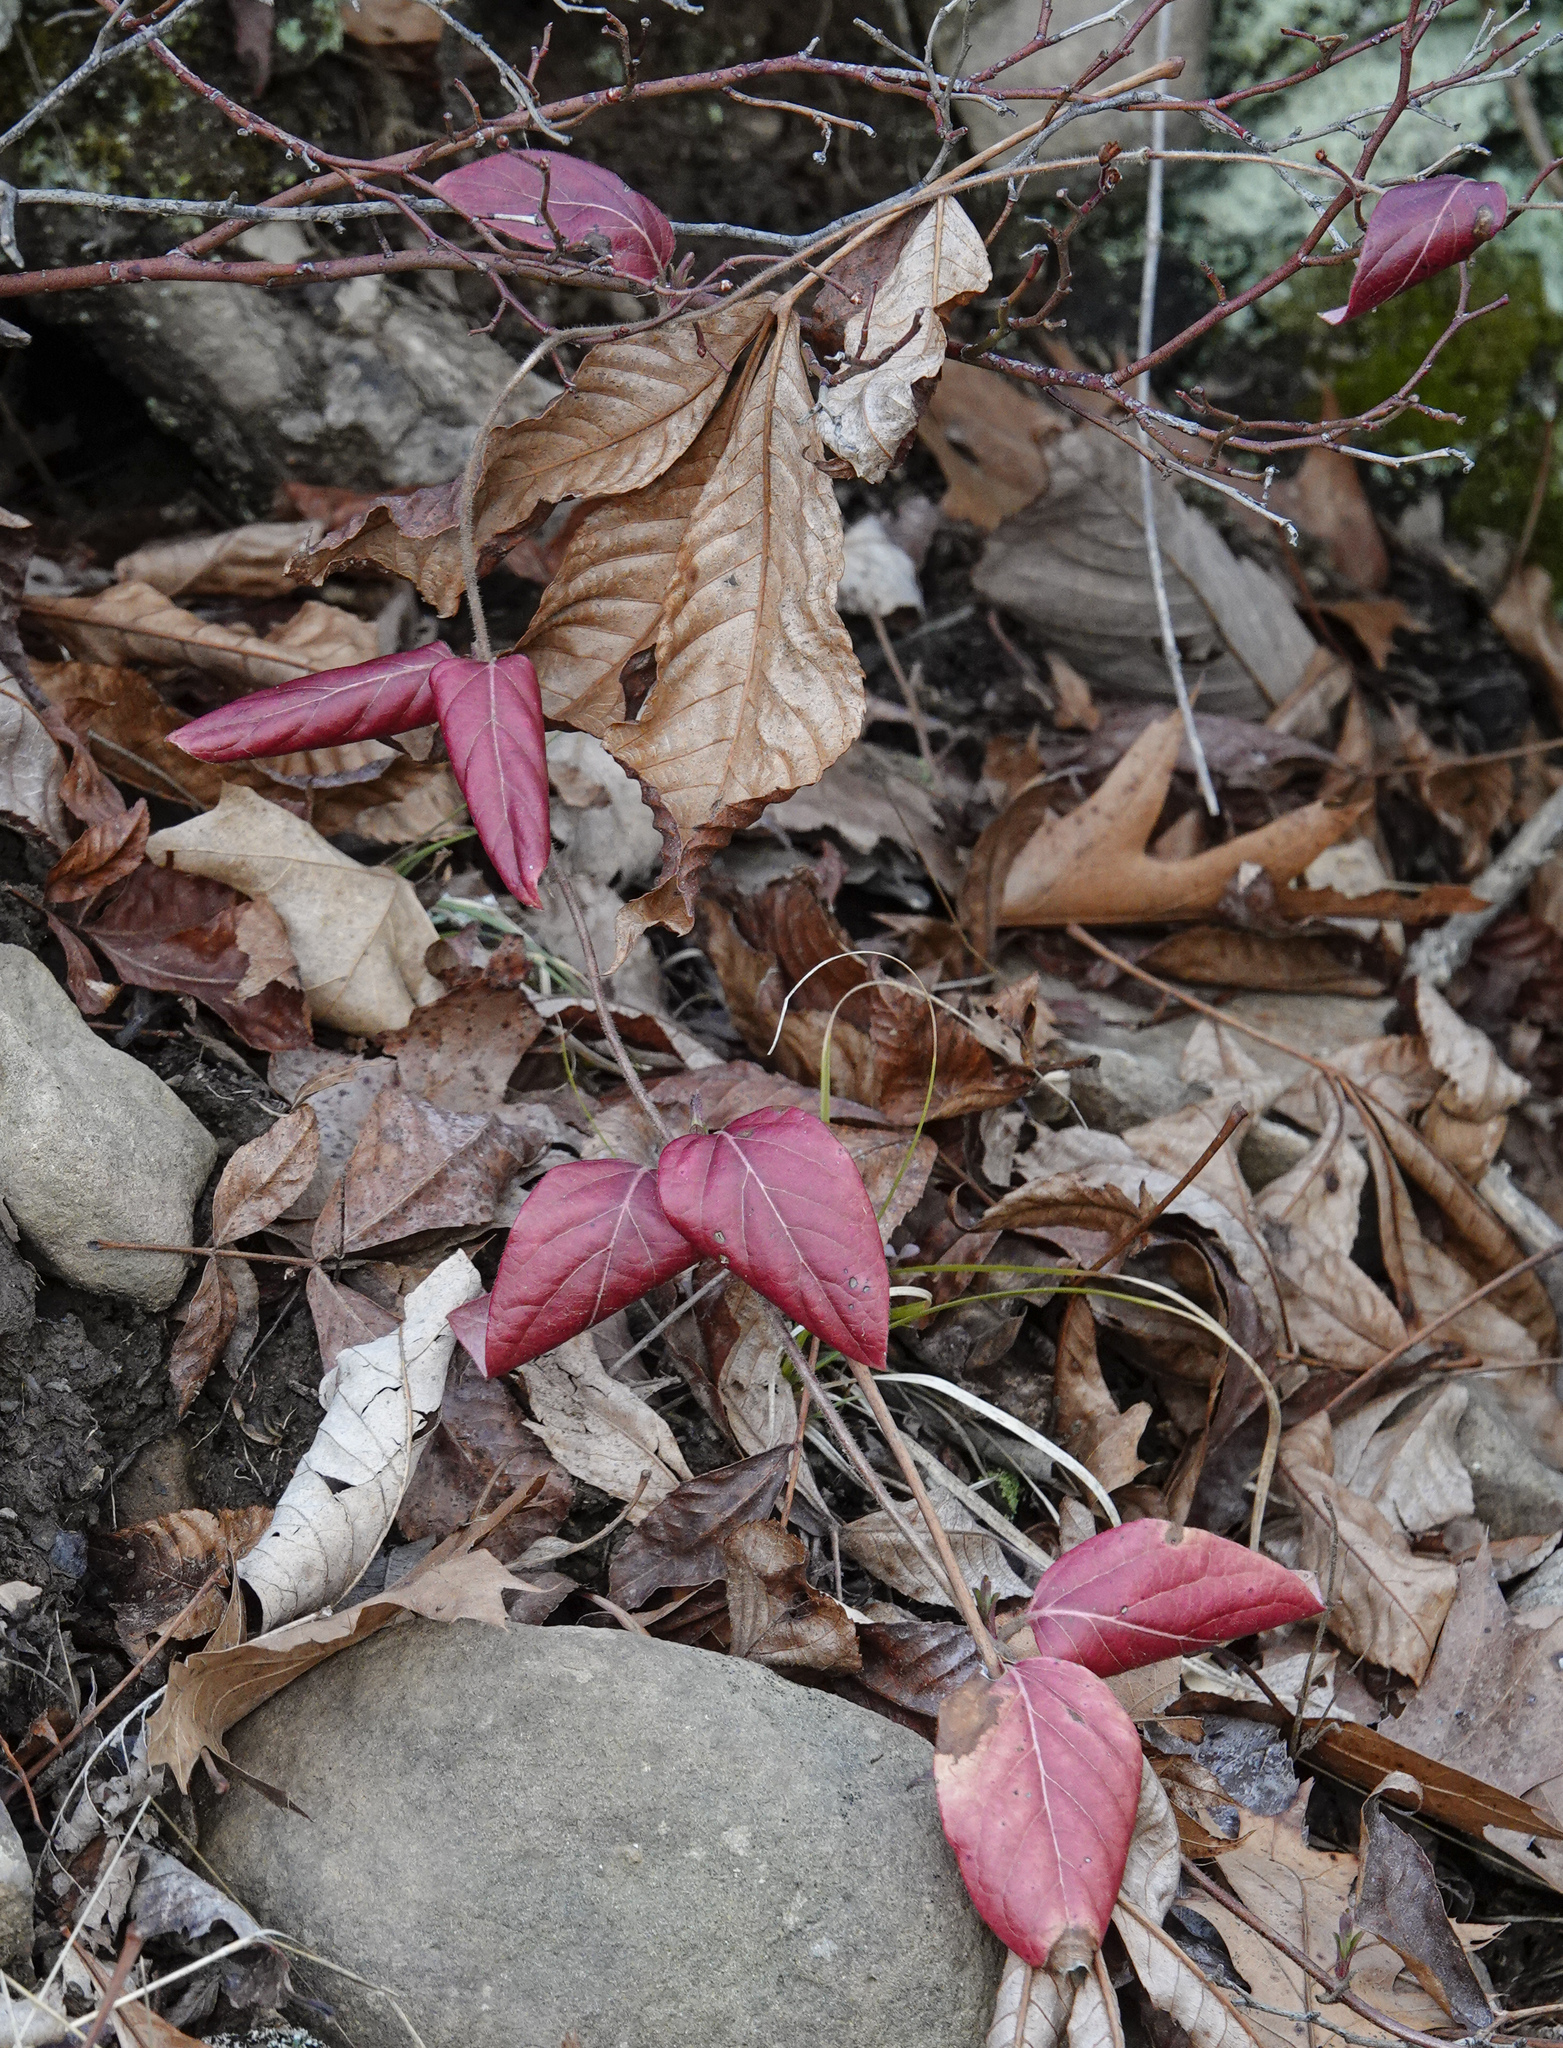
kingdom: Plantae
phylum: Tracheophyta
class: Magnoliopsida
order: Dipsacales
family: Caprifoliaceae
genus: Lonicera
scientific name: Lonicera japonica
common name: Japanese honeysuckle
